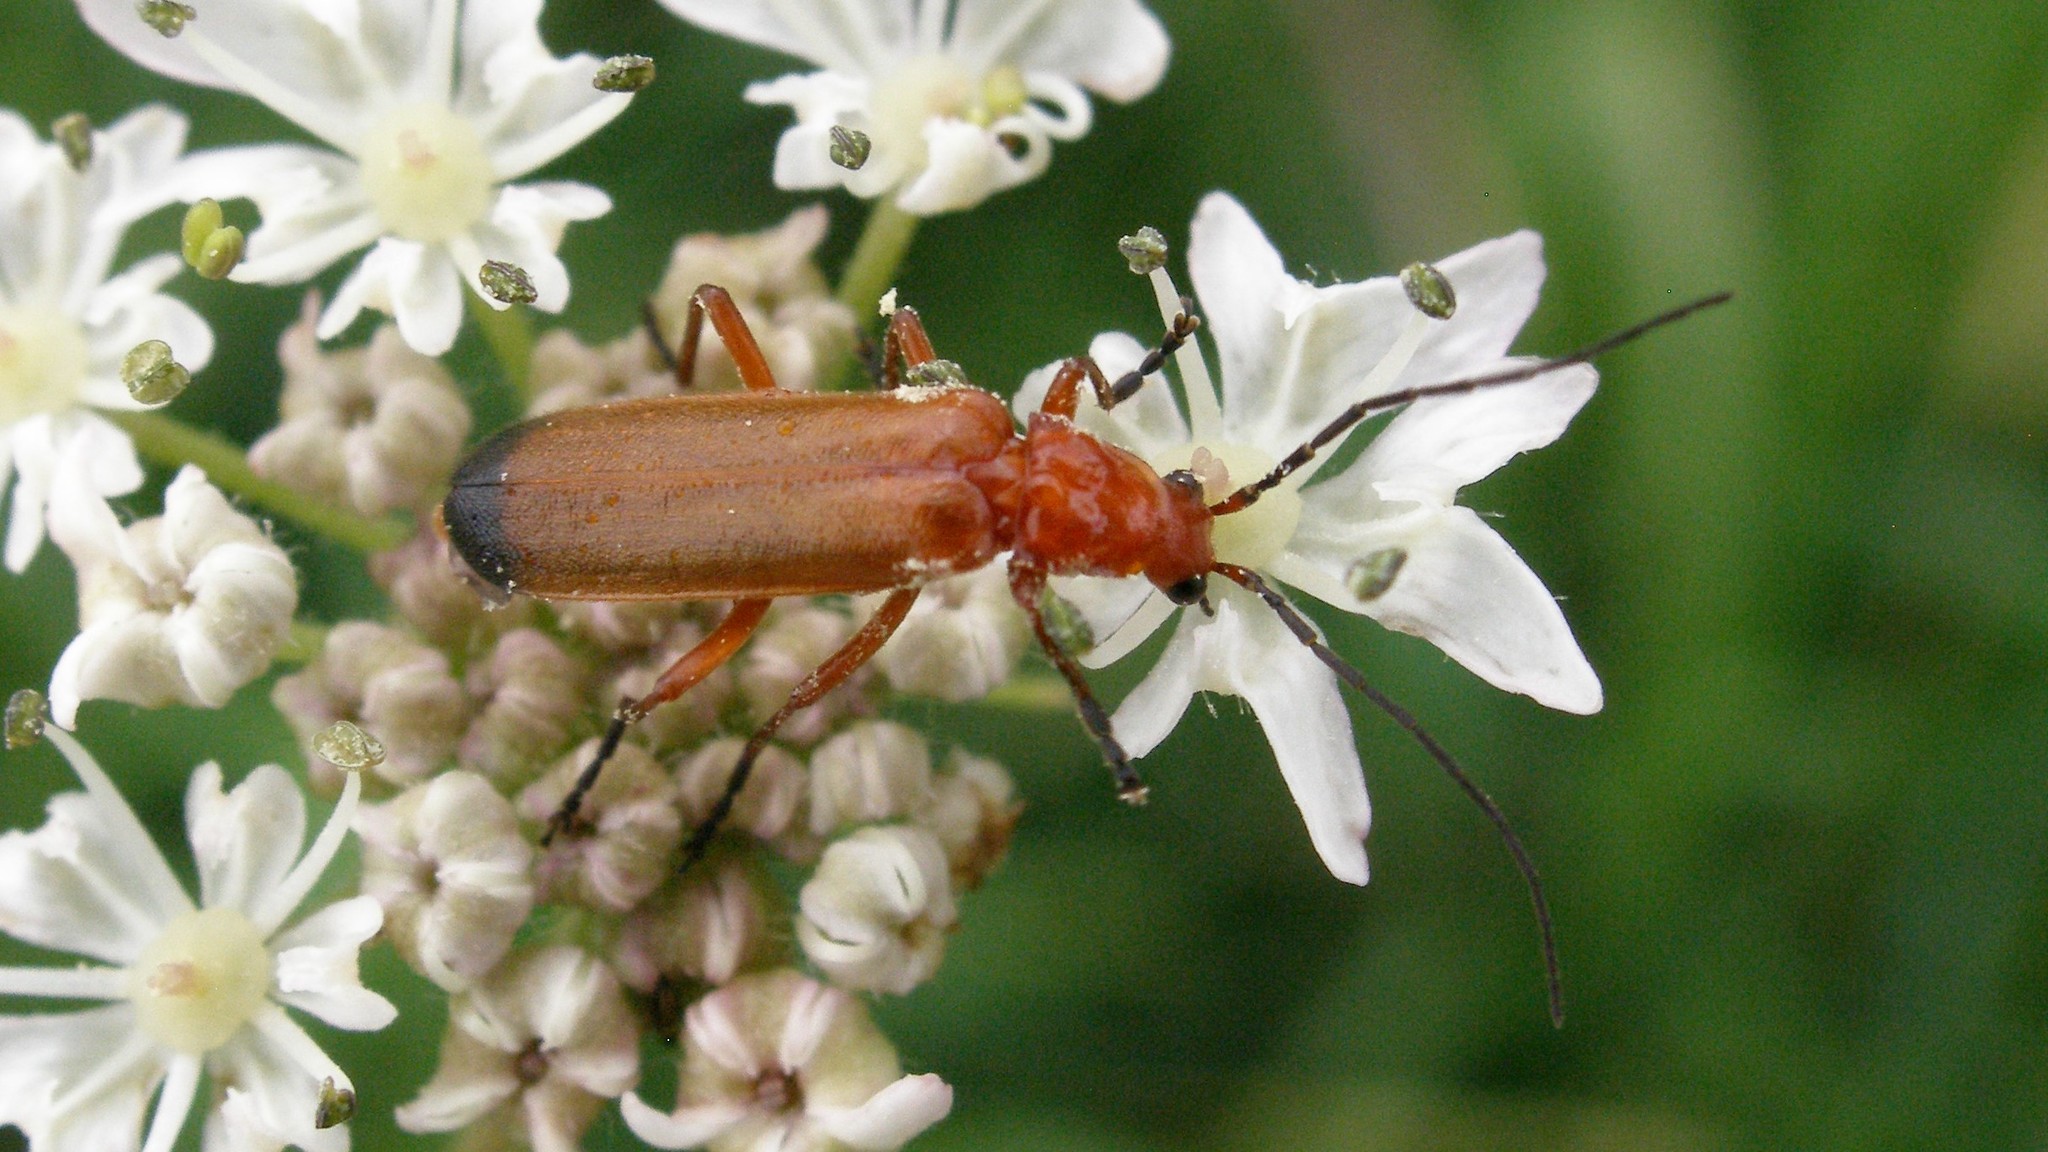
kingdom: Animalia
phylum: Arthropoda
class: Insecta
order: Coleoptera
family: Cantharidae
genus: Rhagonycha
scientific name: Rhagonycha fulva
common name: Common red soldier beetle
